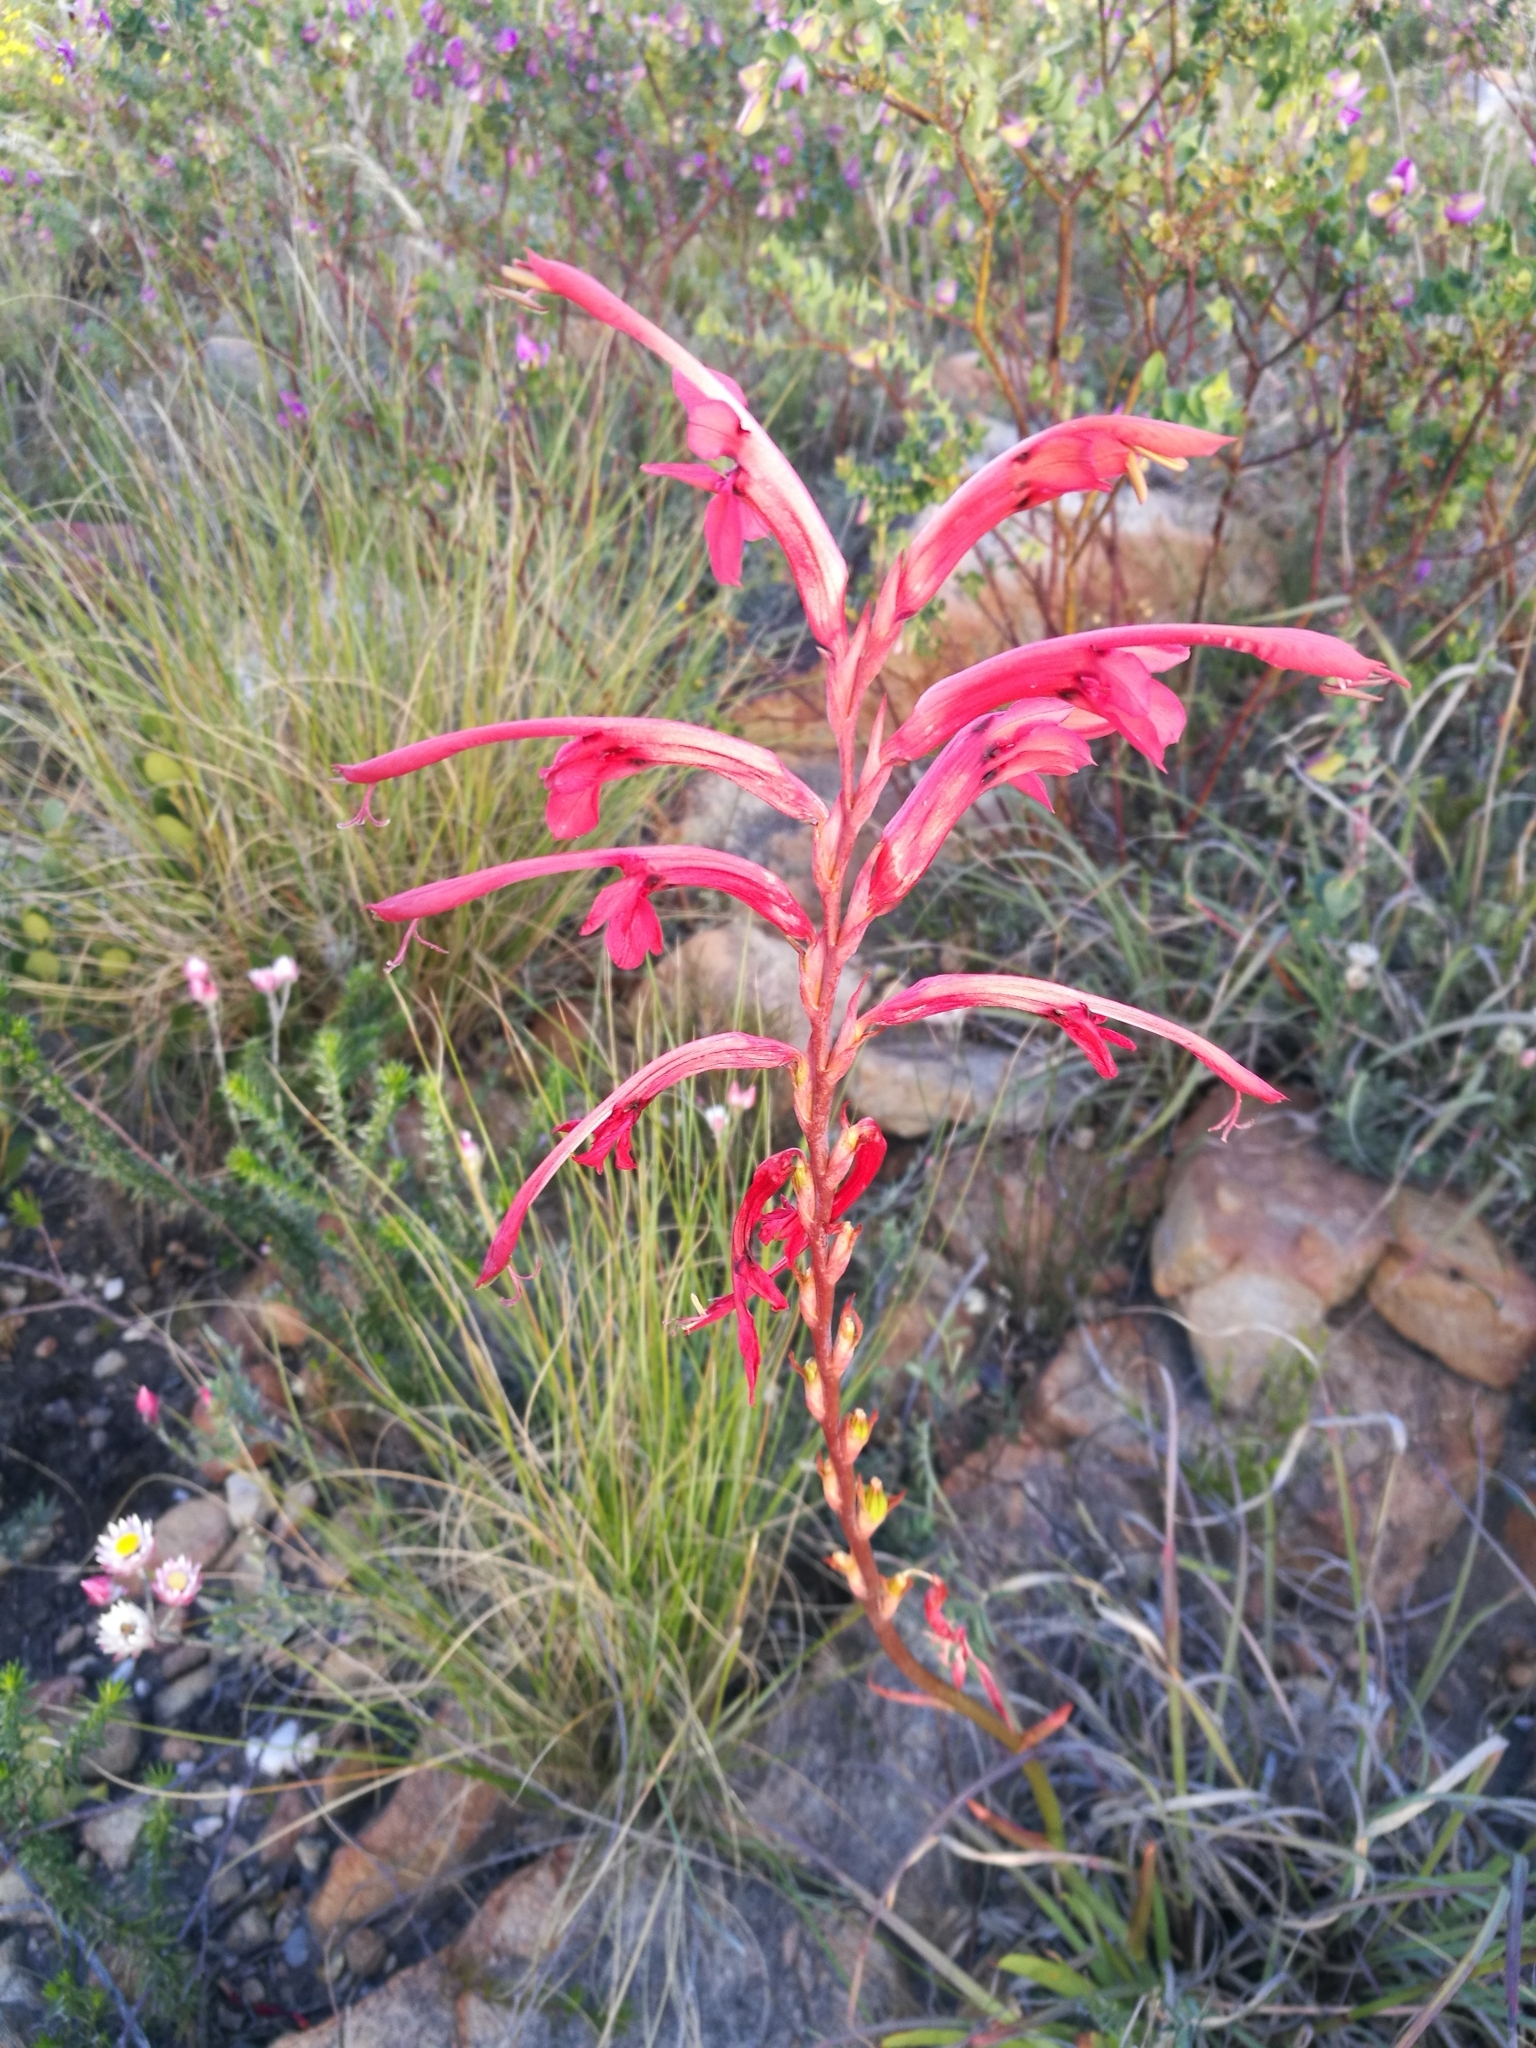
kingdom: Plantae
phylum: Tracheophyta
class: Liliopsida
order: Asparagales
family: Iridaceae
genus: Tritoniopsis
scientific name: Tritoniopsis intermedia
